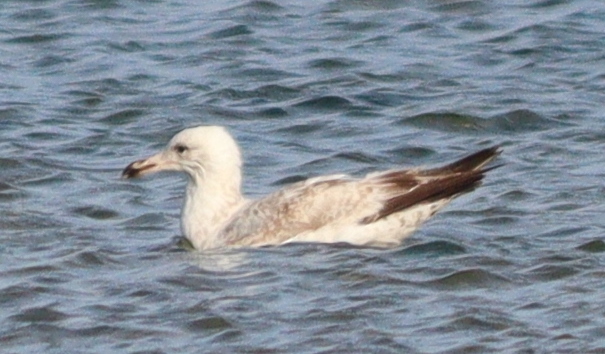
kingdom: Animalia
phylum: Chordata
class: Aves
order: Charadriiformes
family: Laridae
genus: Larus
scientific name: Larus argentatus
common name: Herring gull
